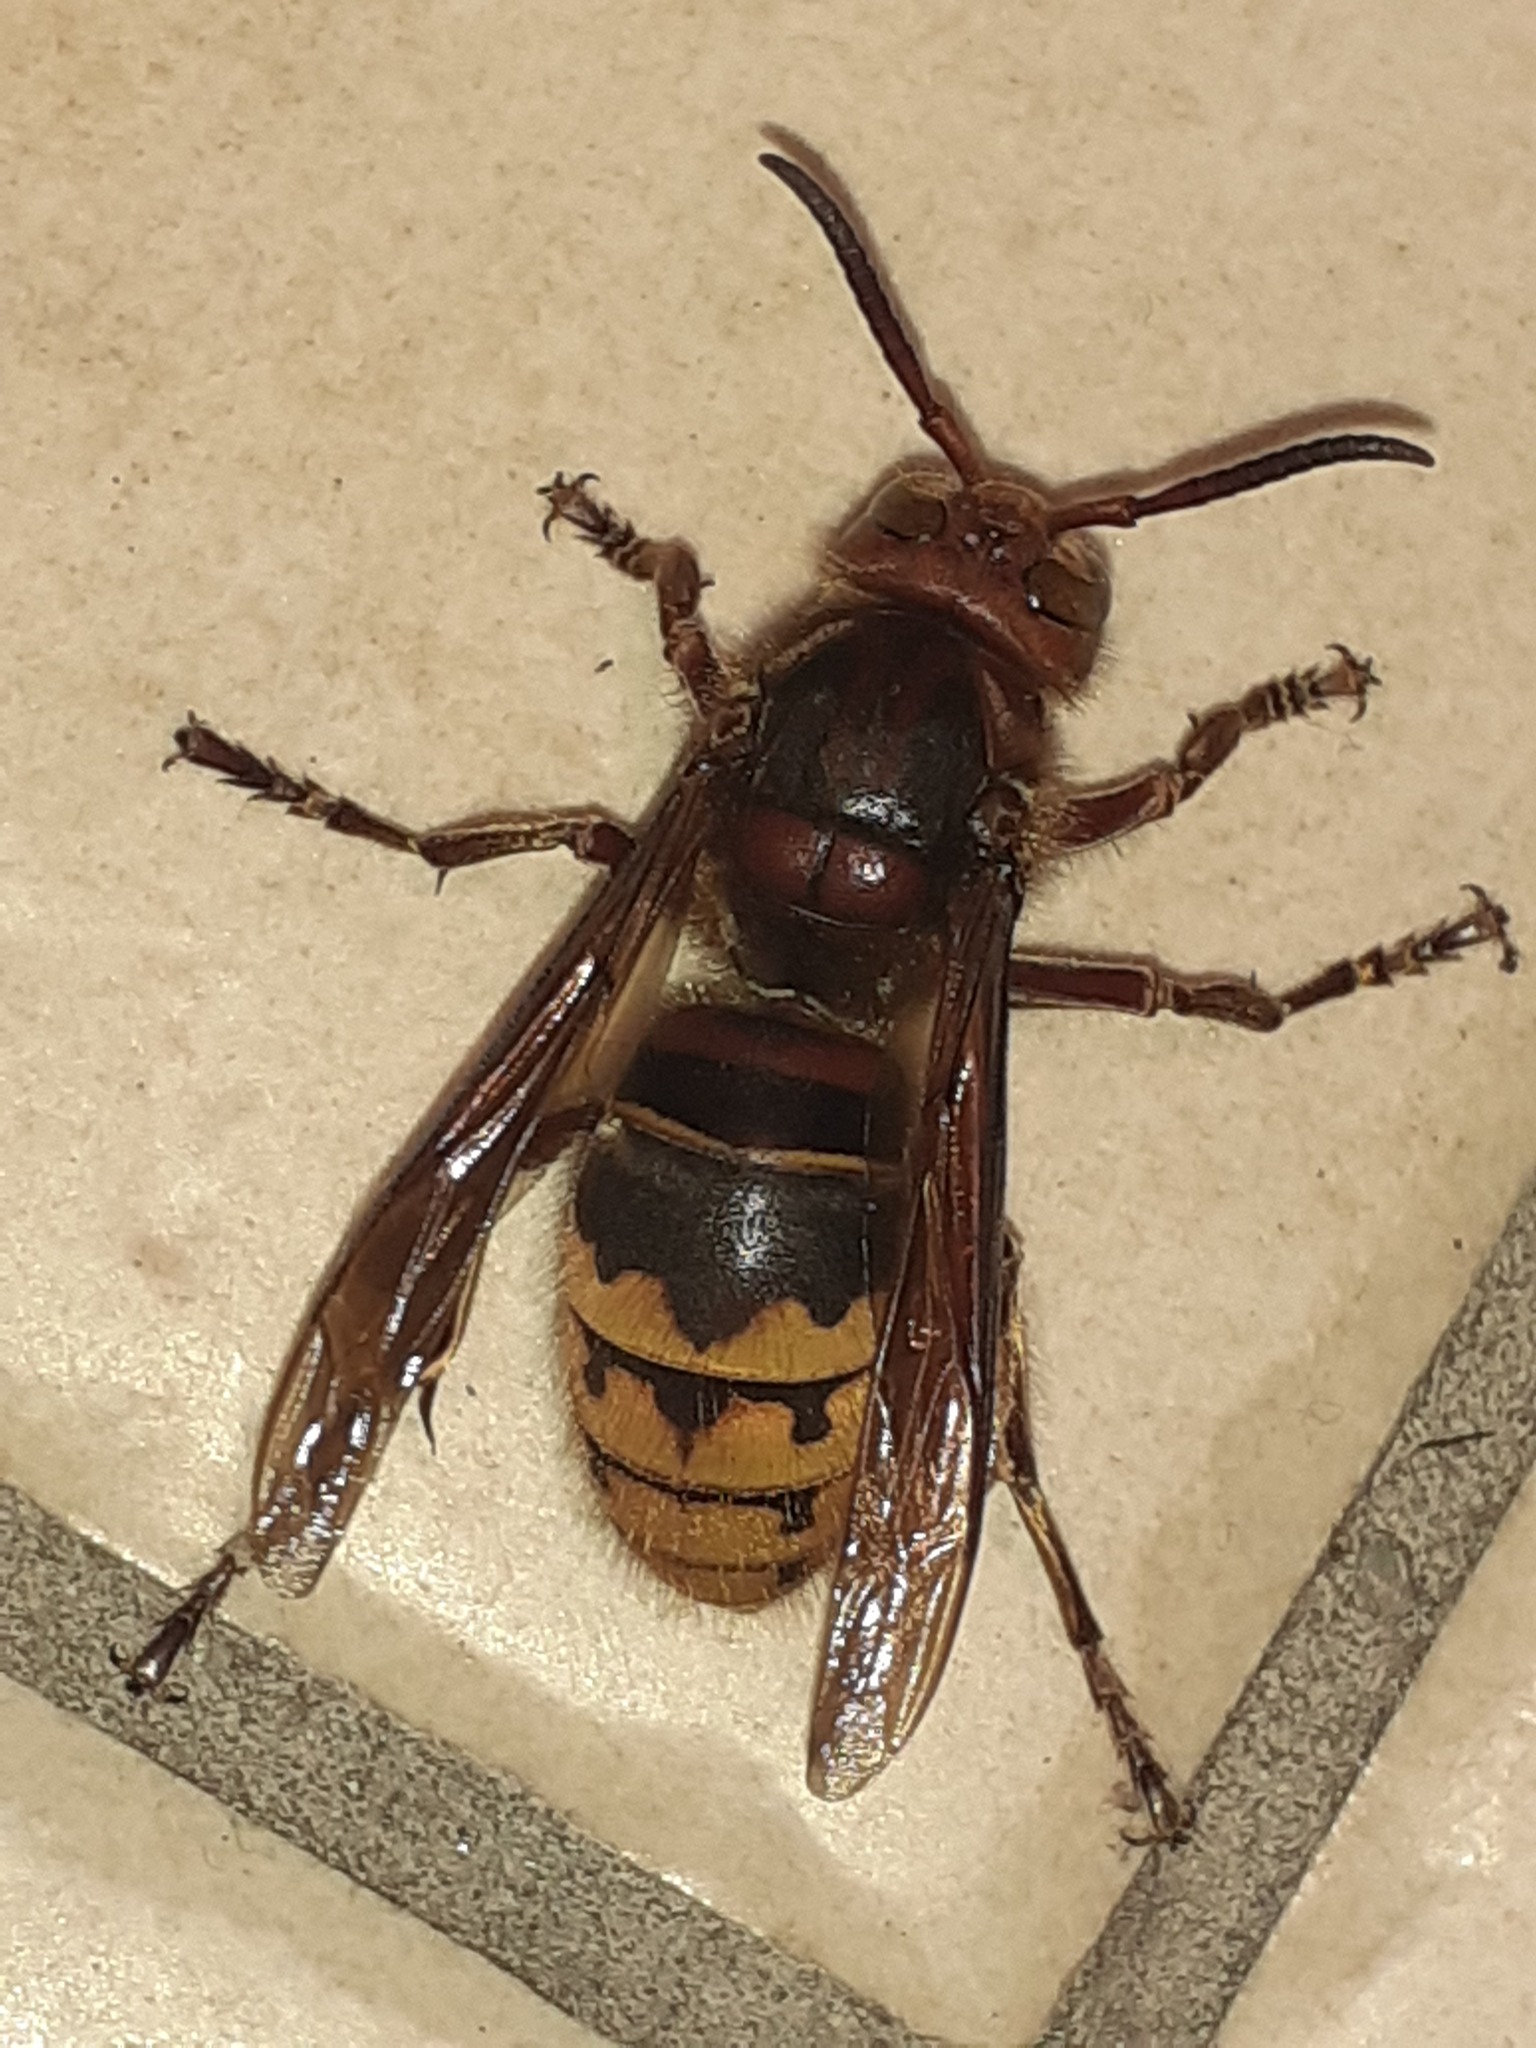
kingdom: Animalia
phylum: Arthropoda
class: Insecta
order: Hymenoptera
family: Vespidae
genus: Vespa
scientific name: Vespa crabro
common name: Hornet
